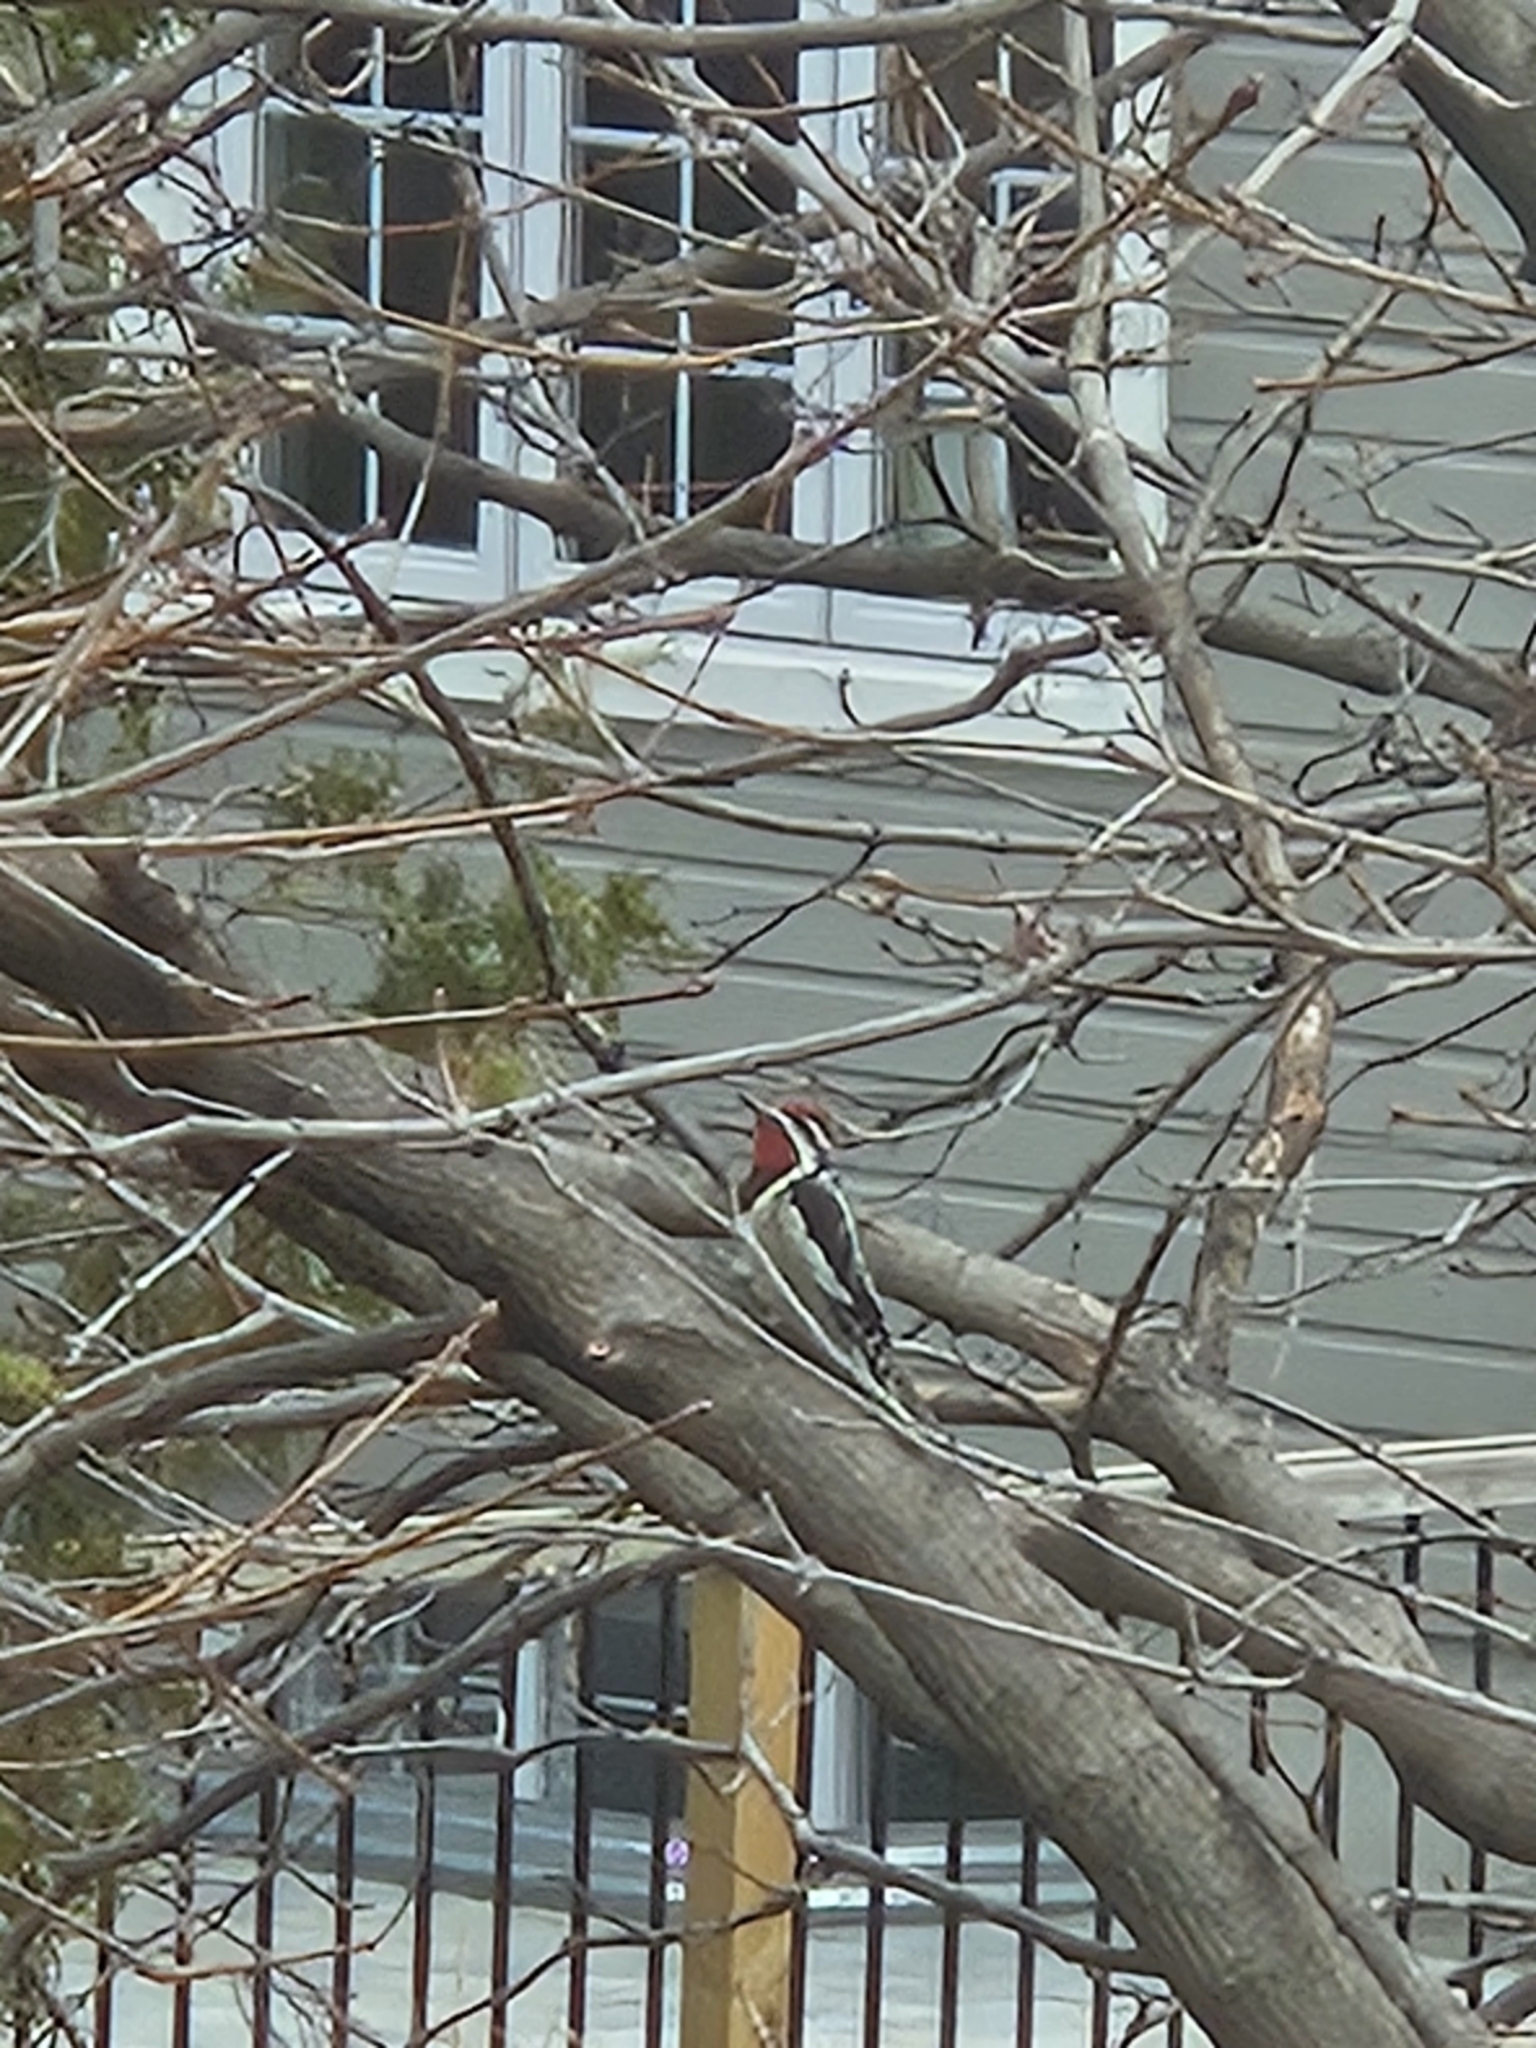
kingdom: Animalia
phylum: Chordata
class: Aves
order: Piciformes
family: Picidae
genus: Sphyrapicus
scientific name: Sphyrapicus varius
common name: Yellow-bellied sapsucker
